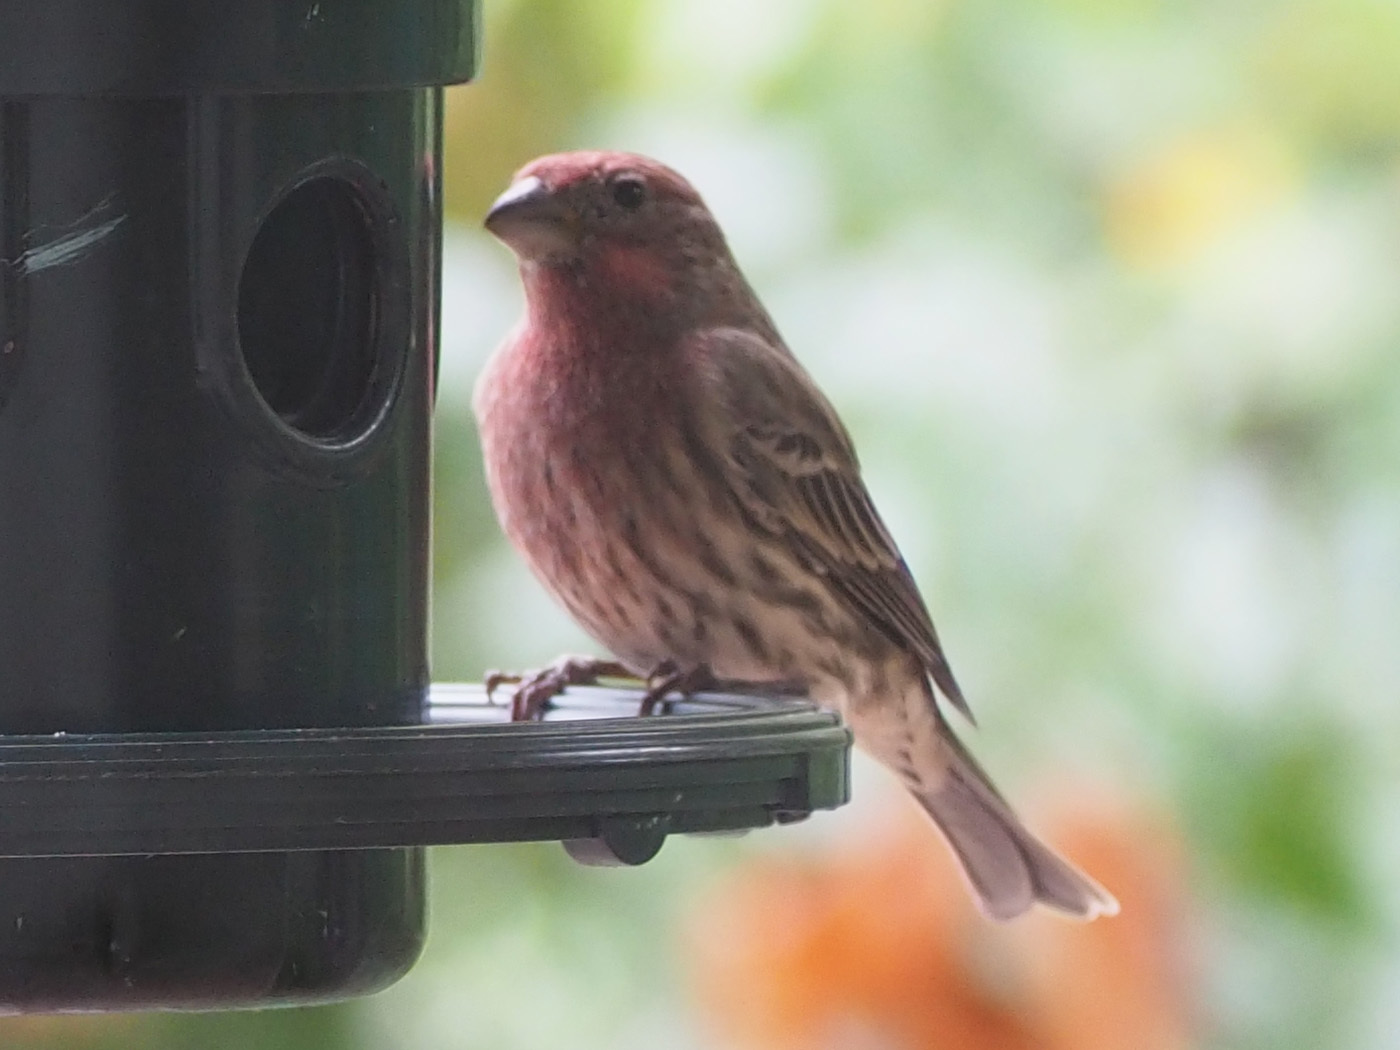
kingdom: Animalia
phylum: Chordata
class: Aves
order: Passeriformes
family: Fringillidae
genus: Haemorhous
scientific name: Haemorhous mexicanus
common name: House finch
